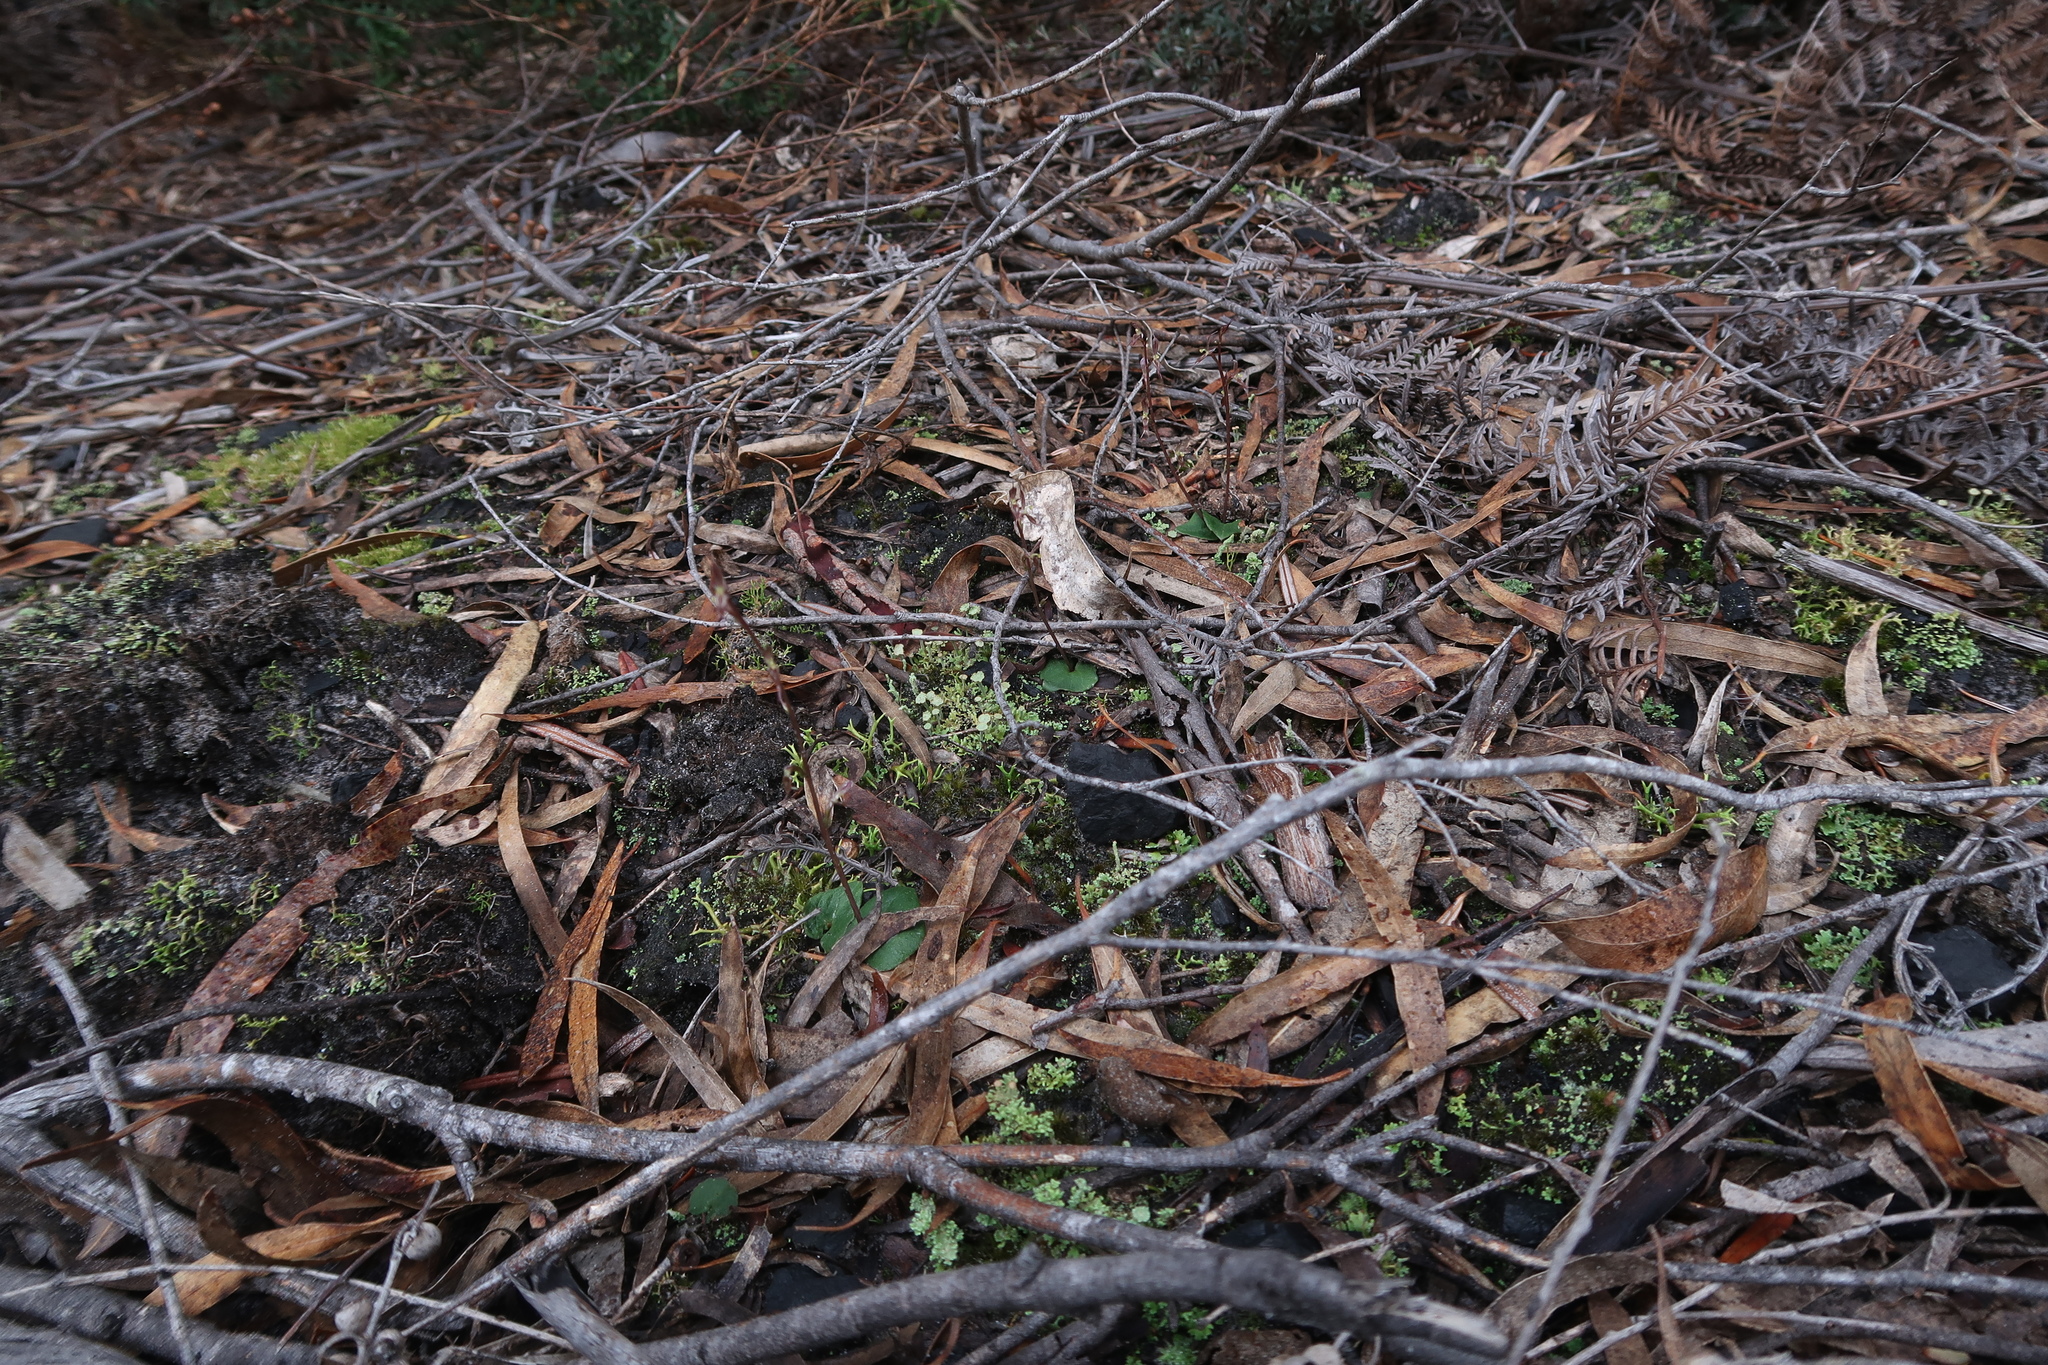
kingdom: Plantae
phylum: Tracheophyta
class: Liliopsida
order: Asparagales
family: Orchidaceae
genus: Acianthus
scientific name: Acianthus pusillus
